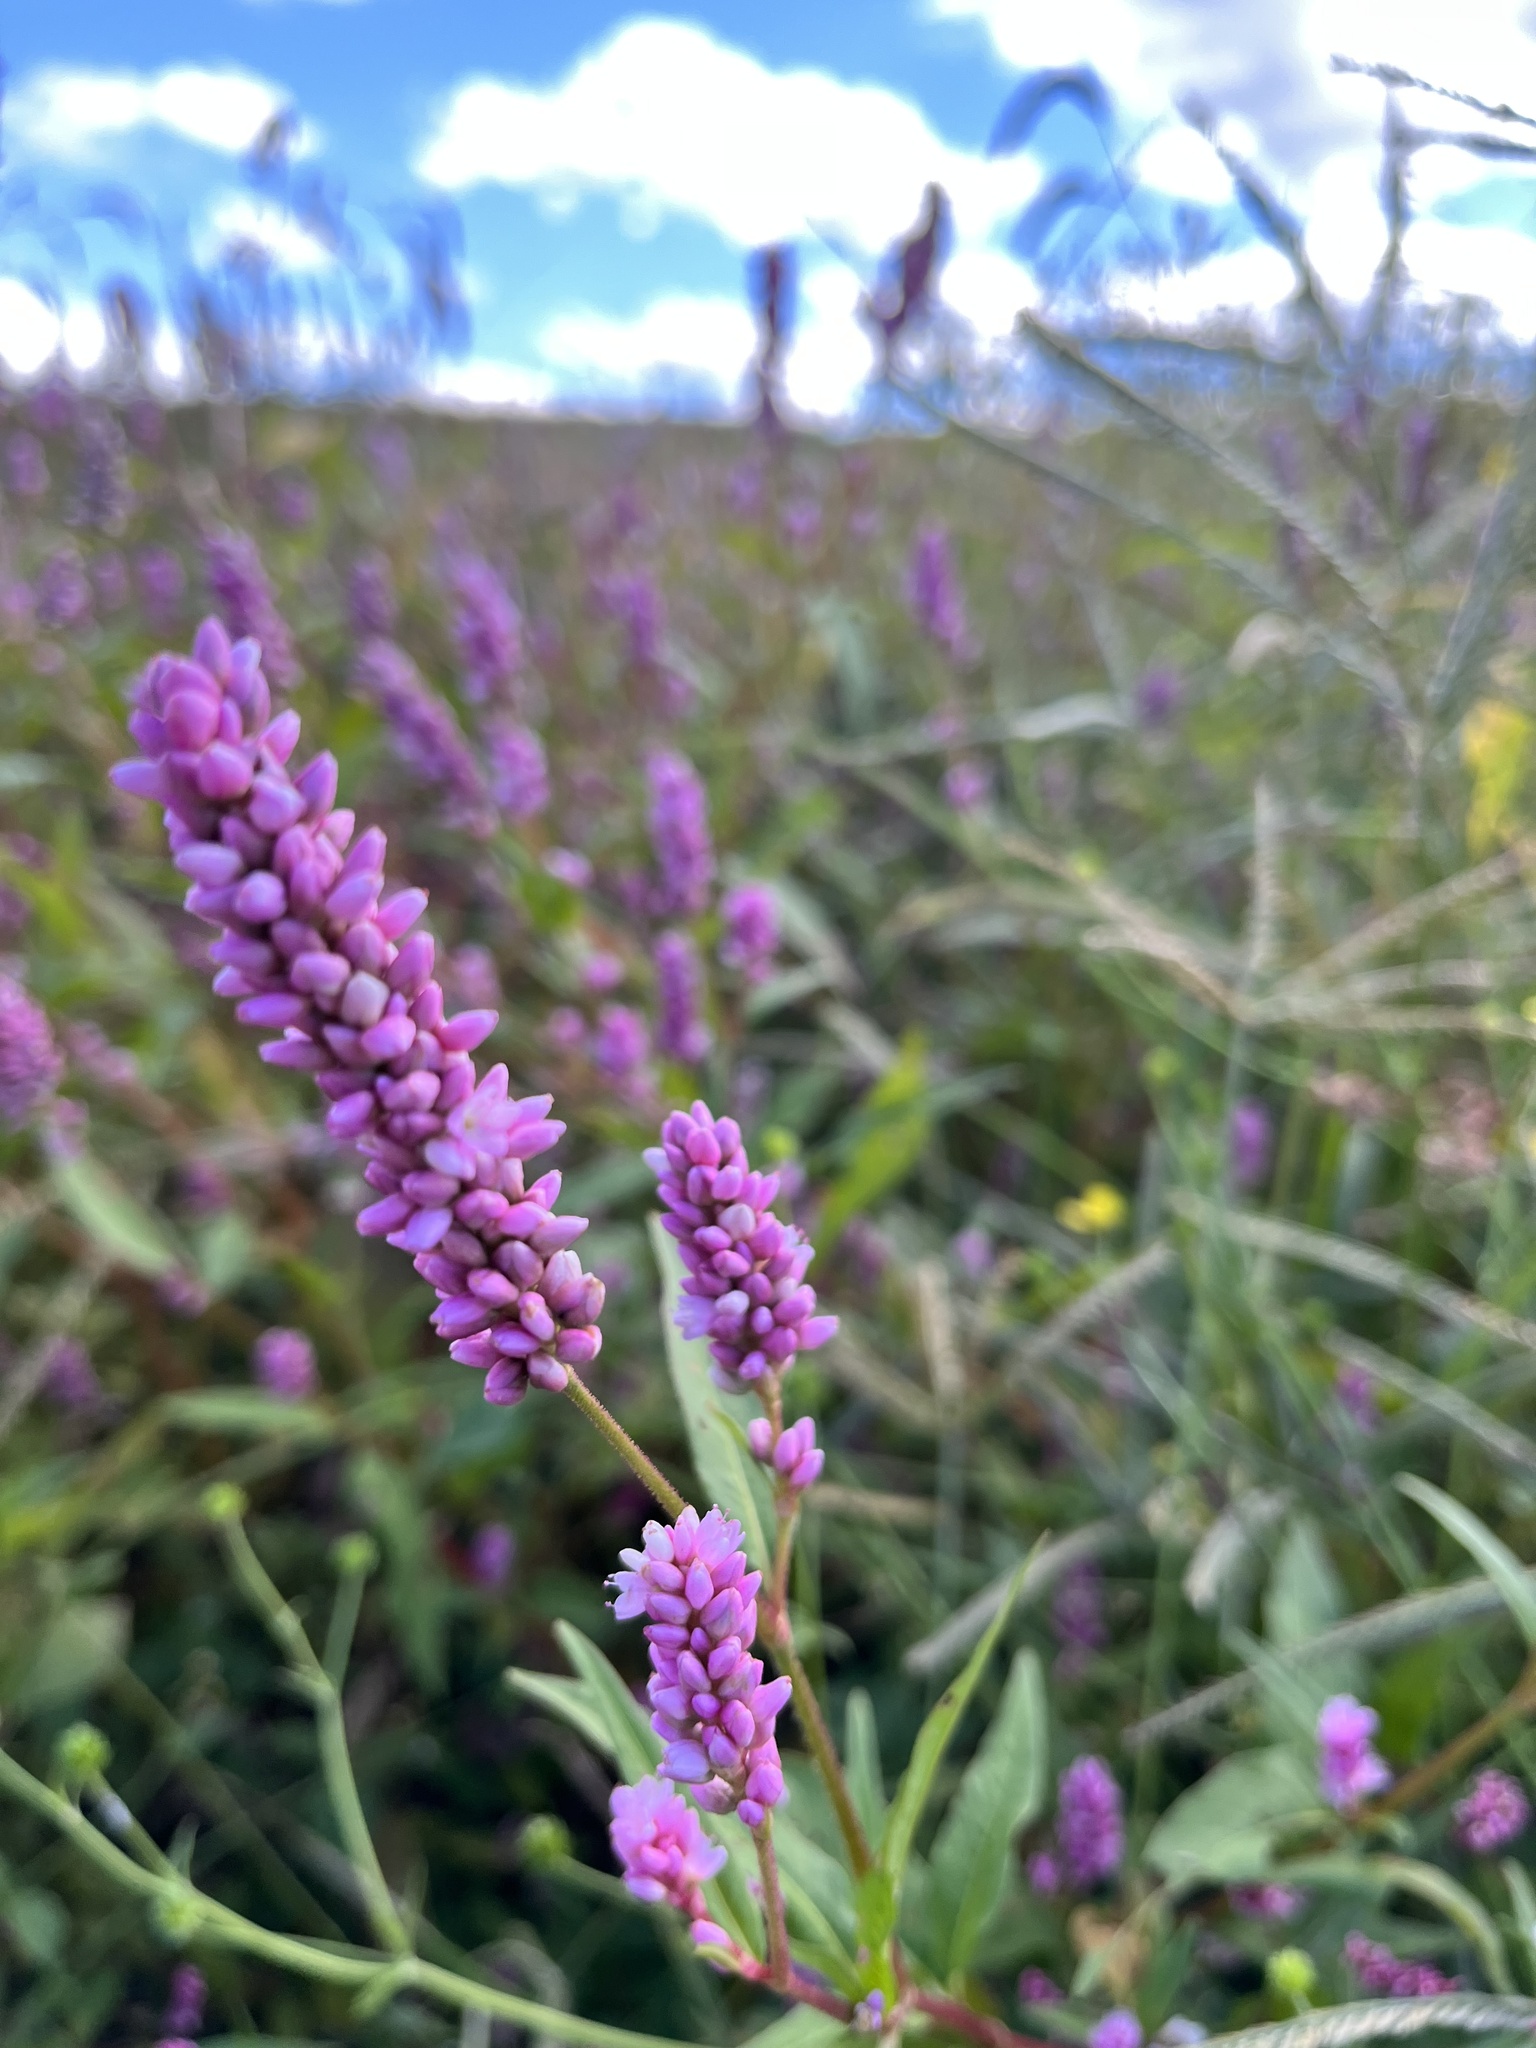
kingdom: Plantae
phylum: Tracheophyta
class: Magnoliopsida
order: Caryophyllales
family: Polygonaceae
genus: Persicaria
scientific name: Persicaria pensylvanica
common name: Pinkweed
